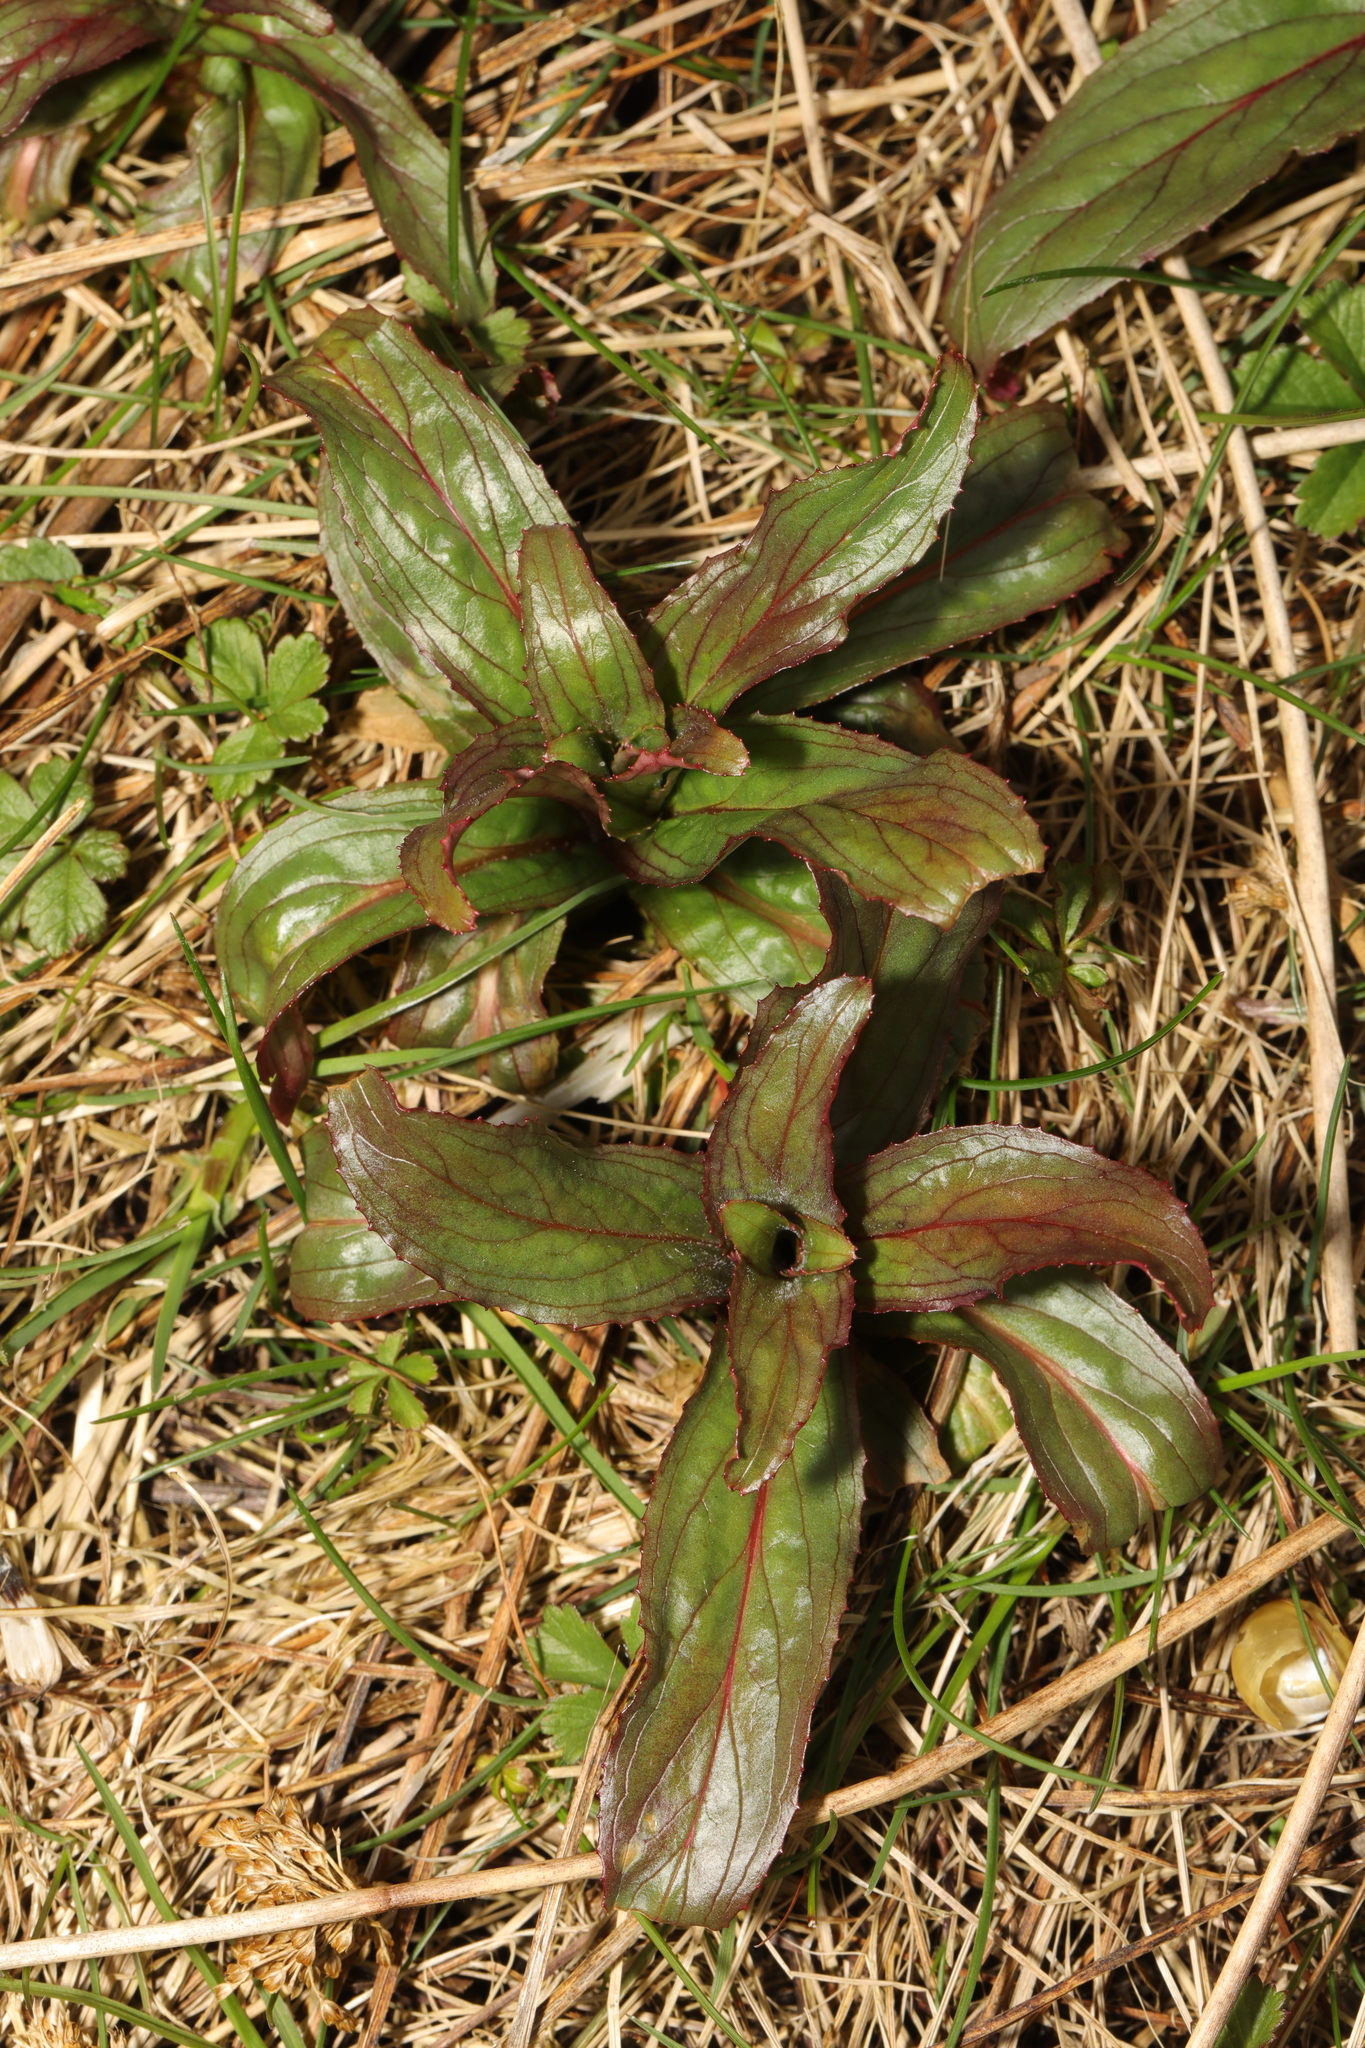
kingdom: Plantae
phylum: Tracheophyta
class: Magnoliopsida
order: Myrtales
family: Onagraceae
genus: Epilobium
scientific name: Epilobium hirsutum
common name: Great willowherb
